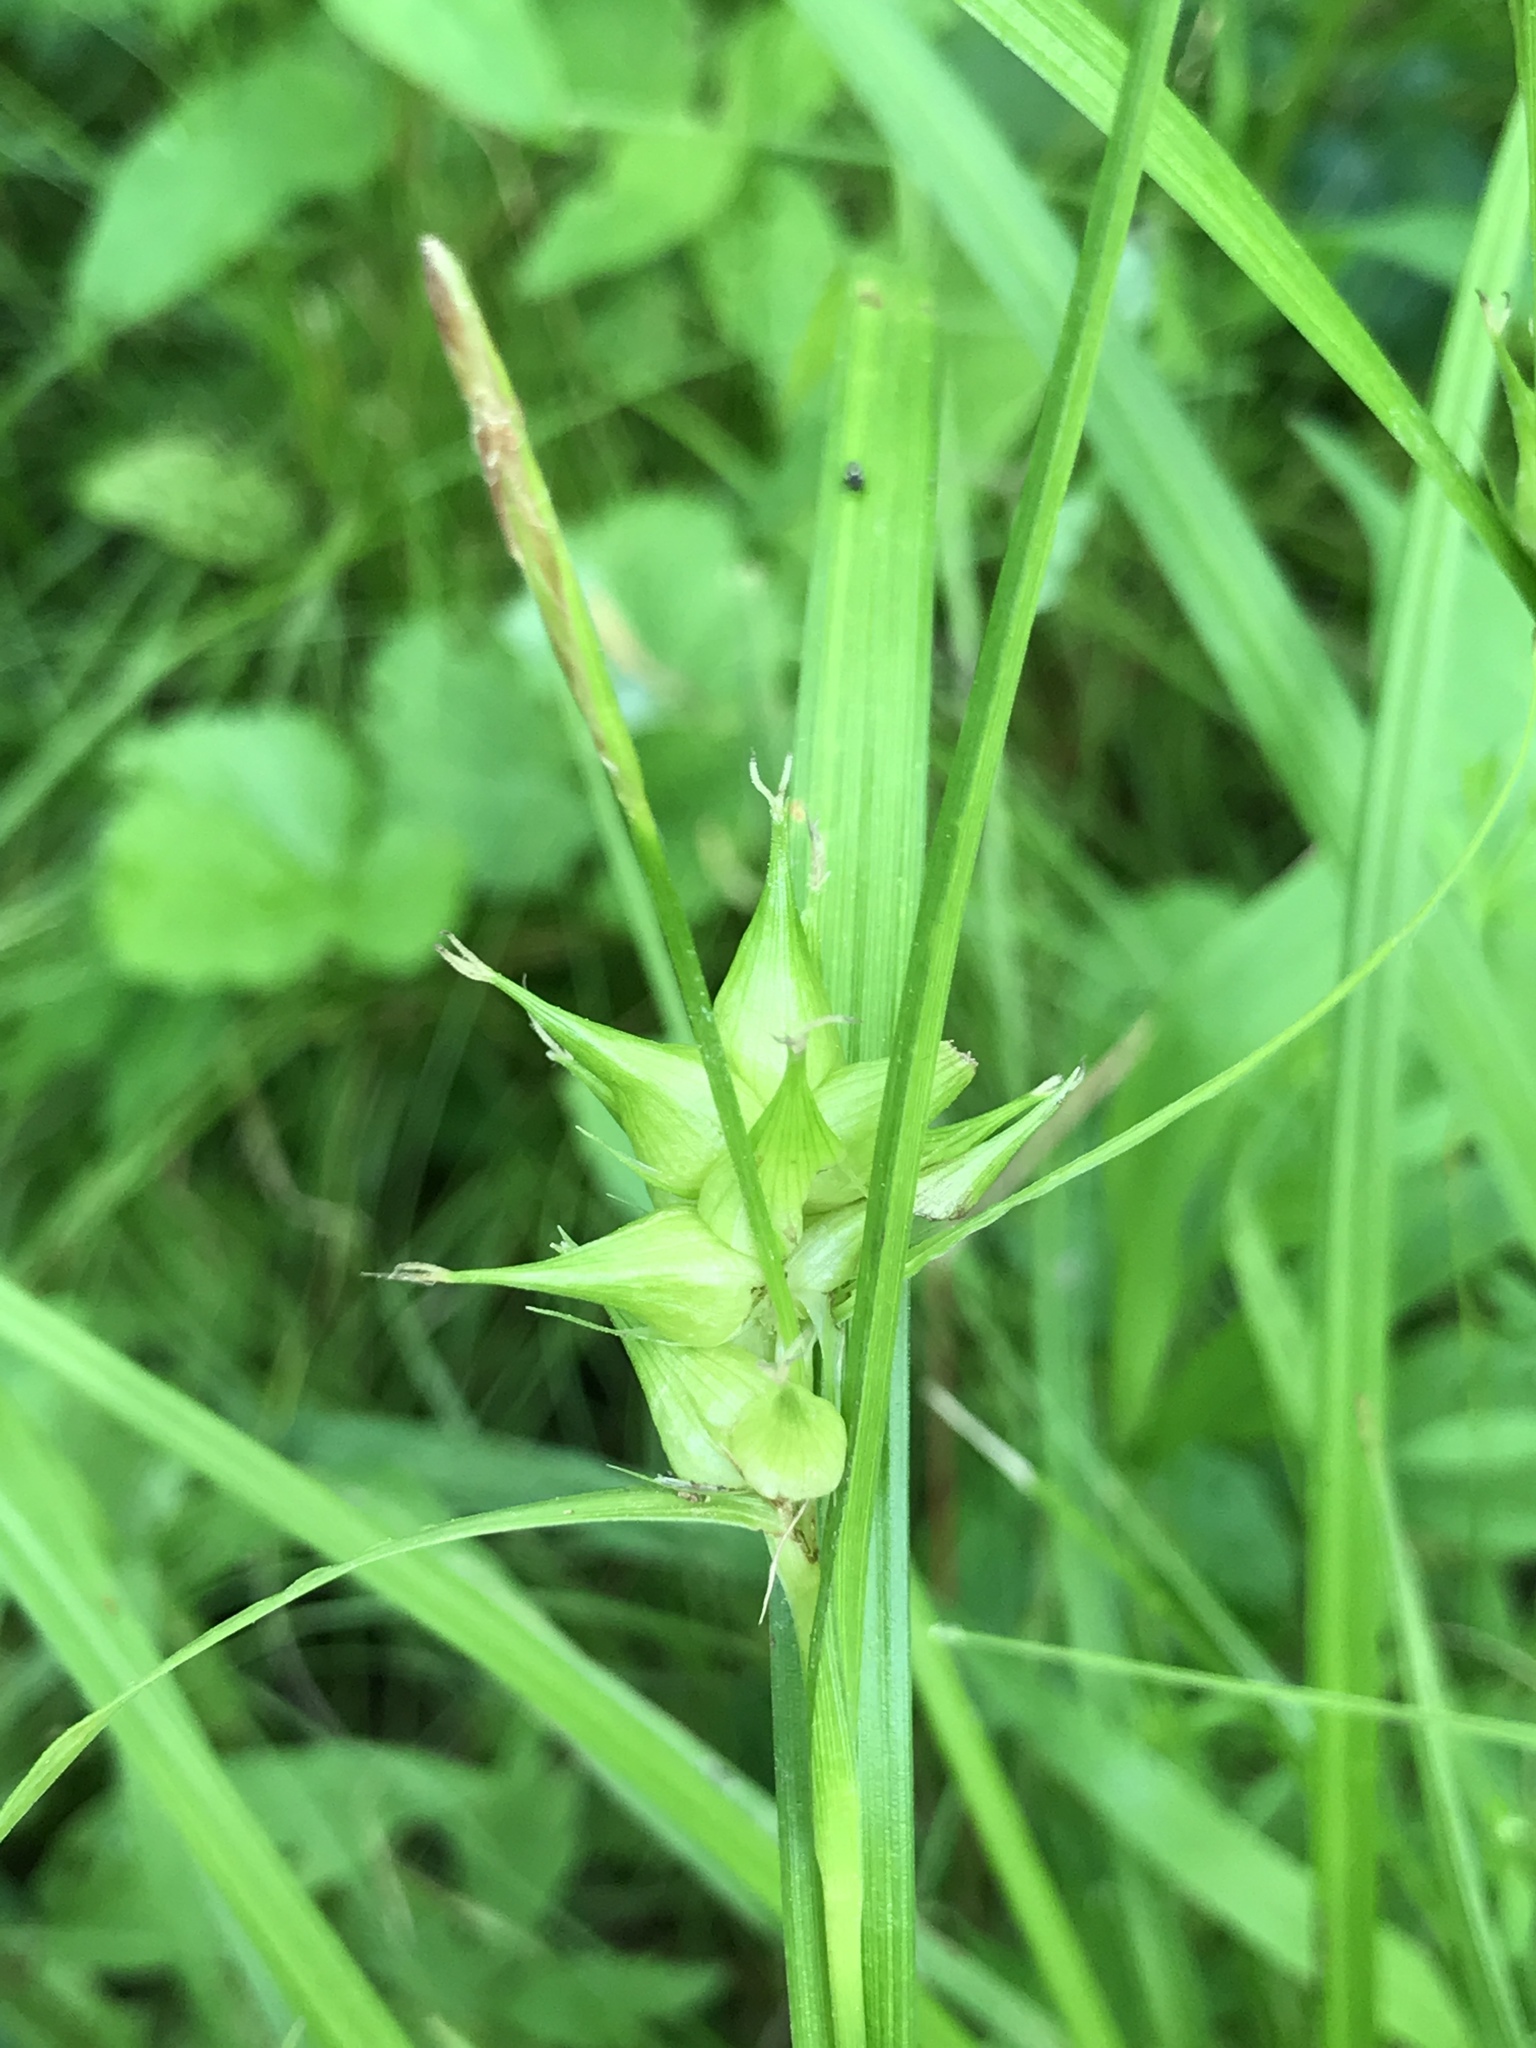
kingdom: Plantae
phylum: Tracheophyta
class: Liliopsida
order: Poales
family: Cyperaceae
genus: Carex
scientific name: Carex intumescens
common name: Greater bladder sedge
